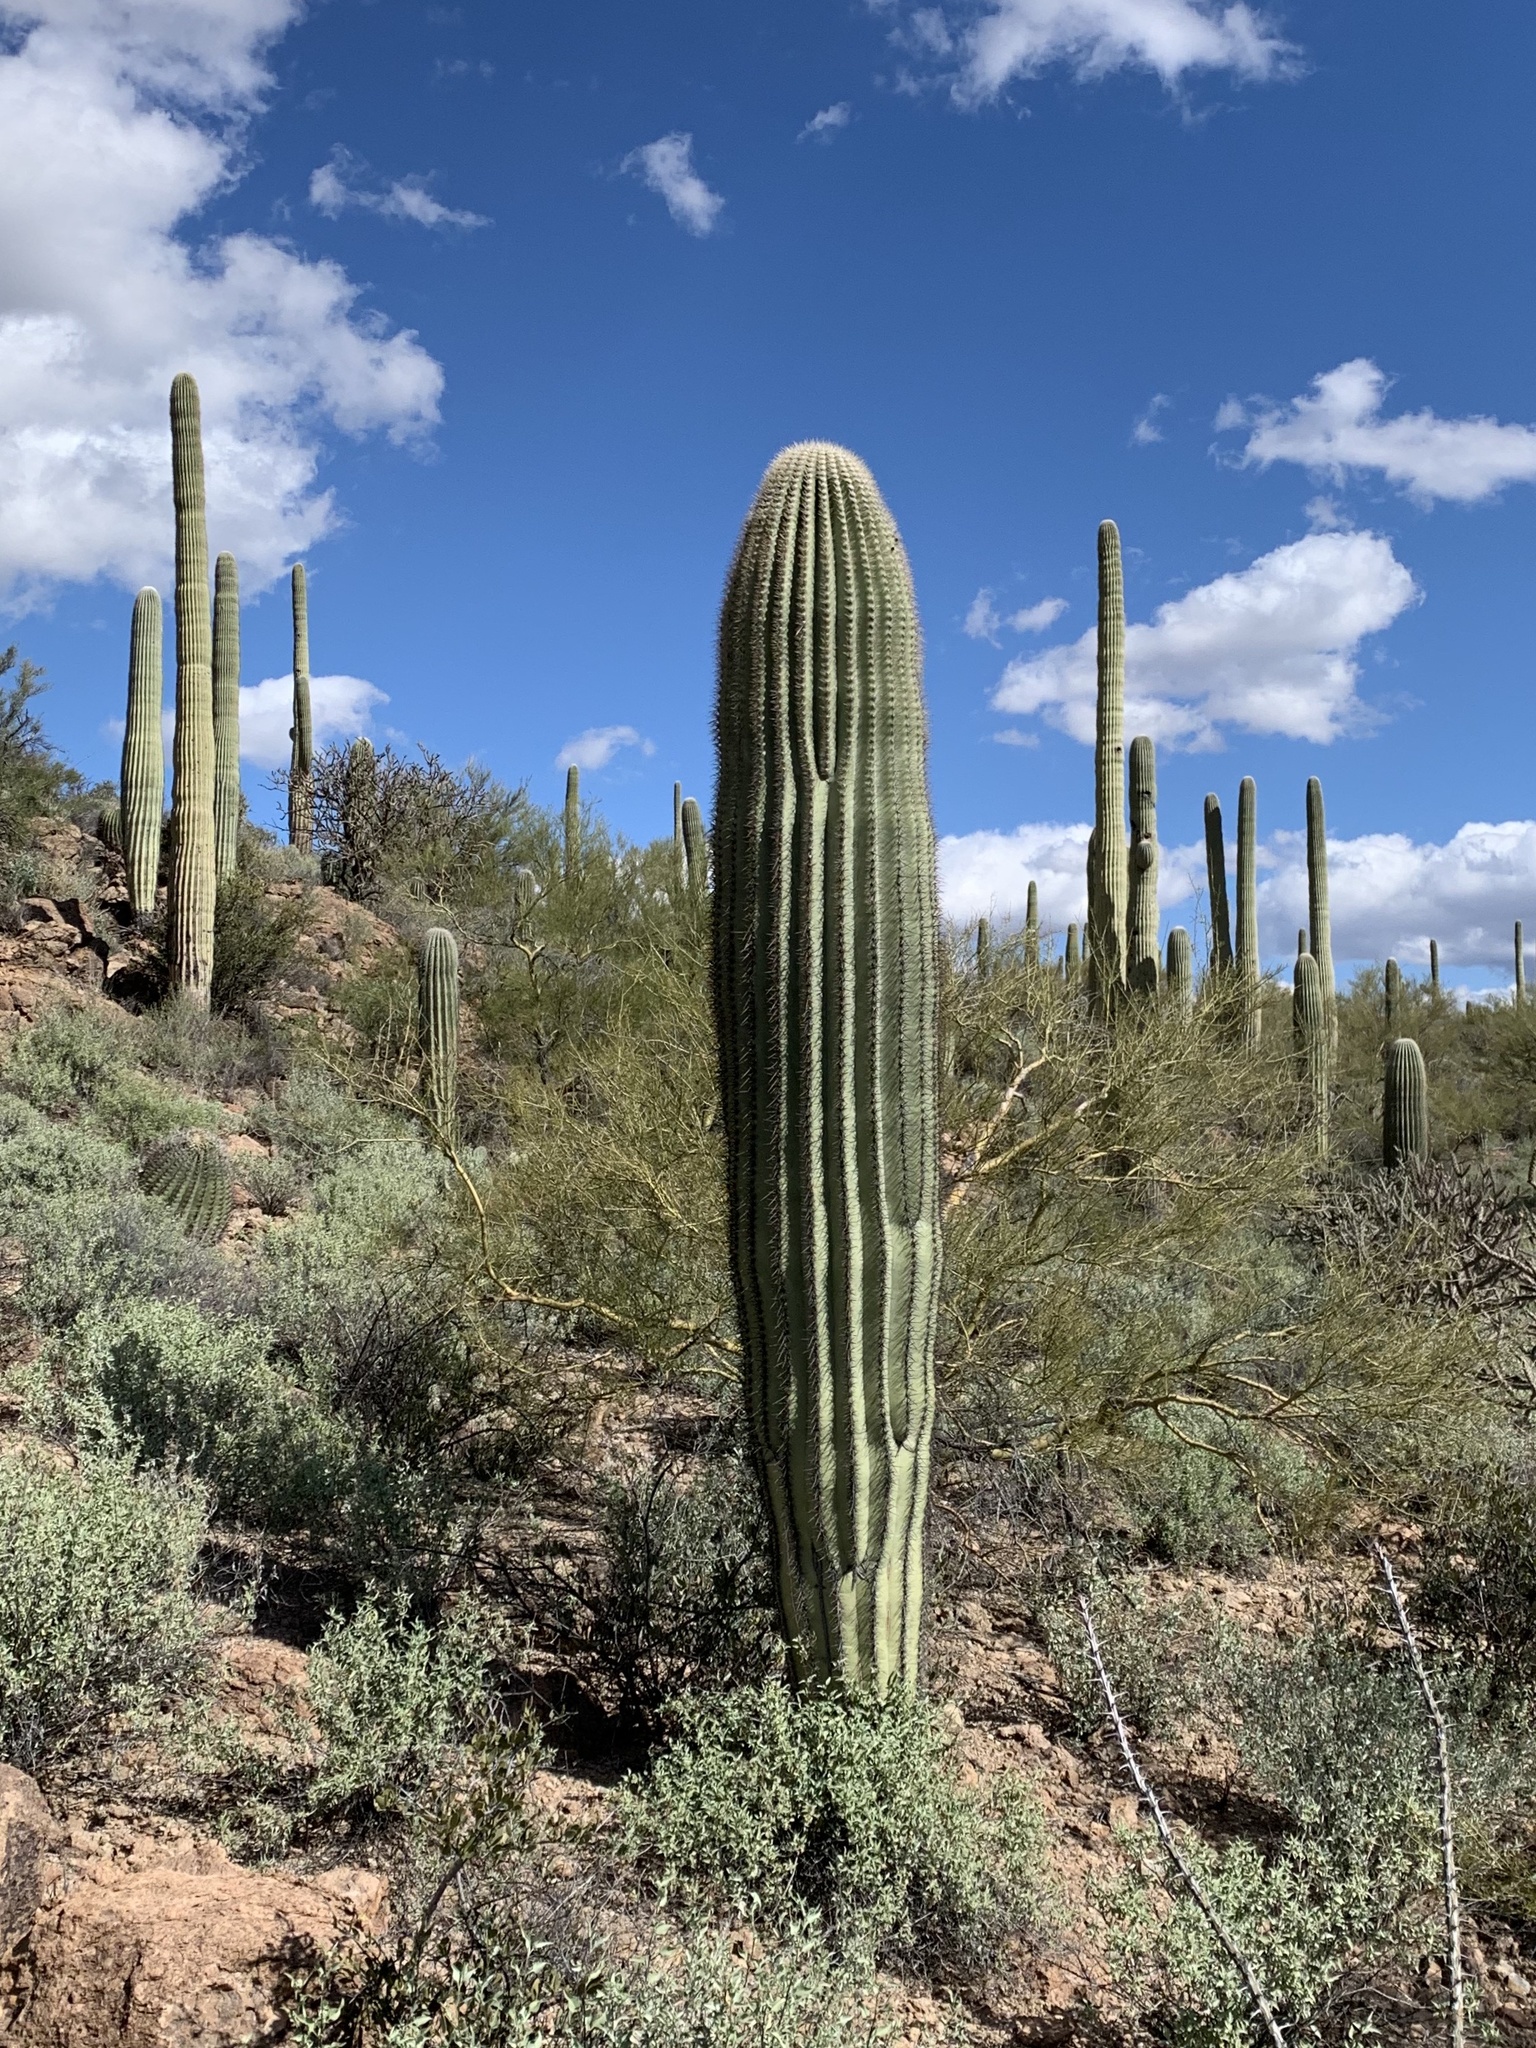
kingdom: Plantae
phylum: Tracheophyta
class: Magnoliopsida
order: Caryophyllales
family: Cactaceae
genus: Carnegiea
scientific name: Carnegiea gigantea
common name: Saguaro
